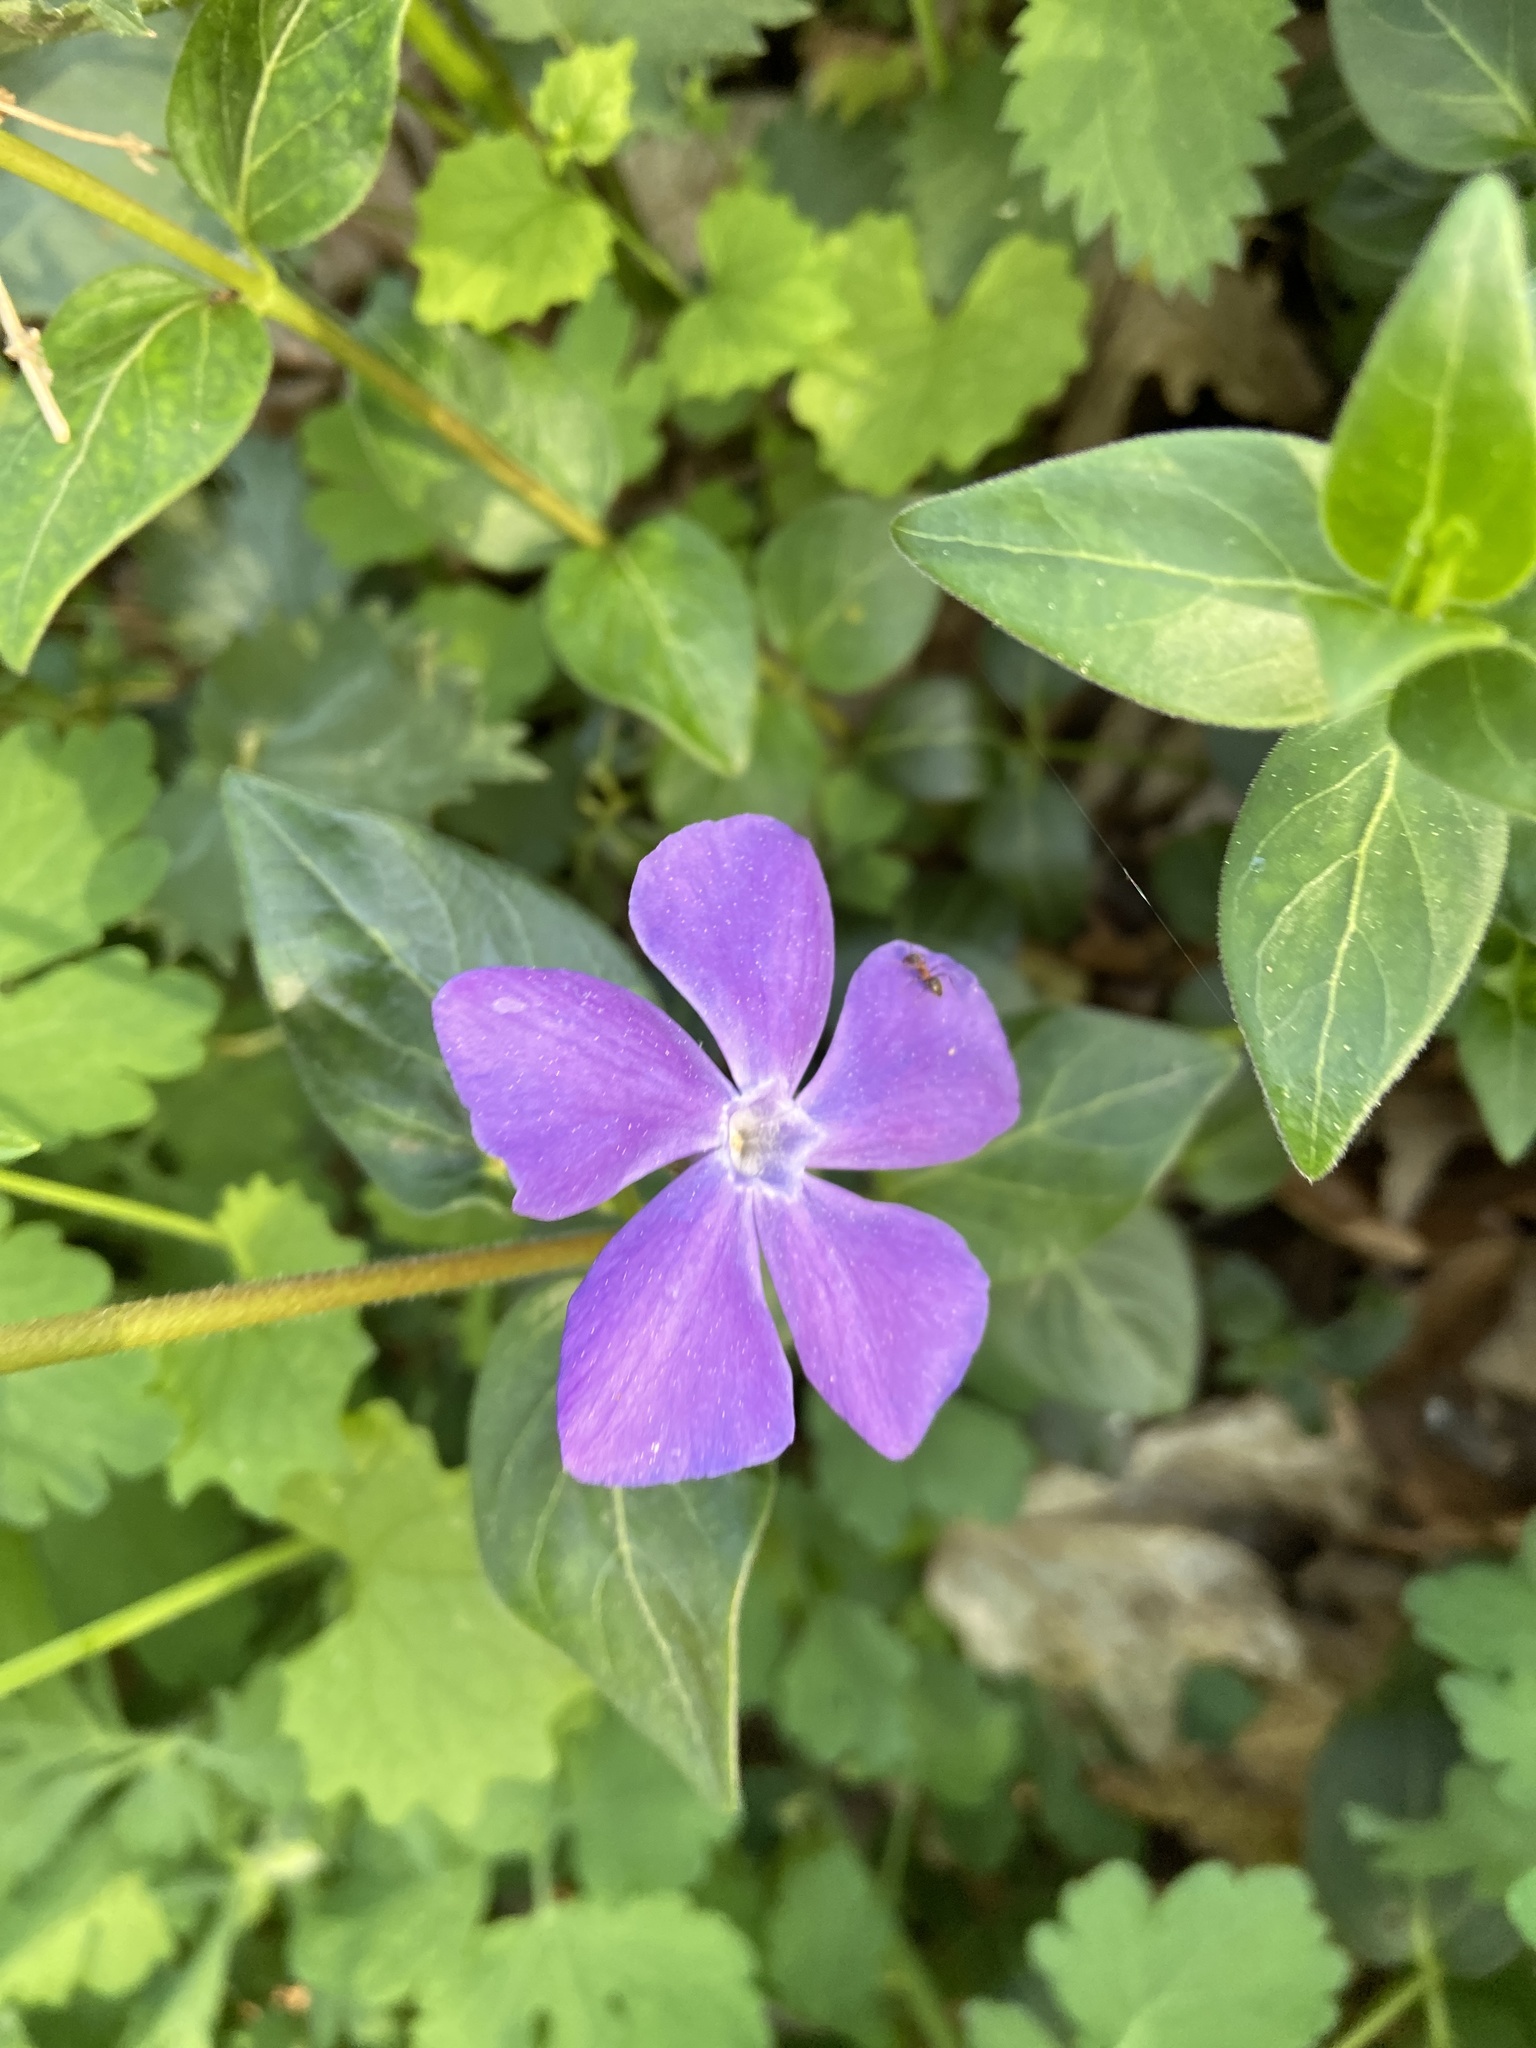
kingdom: Plantae
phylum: Tracheophyta
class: Magnoliopsida
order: Gentianales
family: Apocynaceae
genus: Vinca
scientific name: Vinca major
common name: Greater periwinkle
